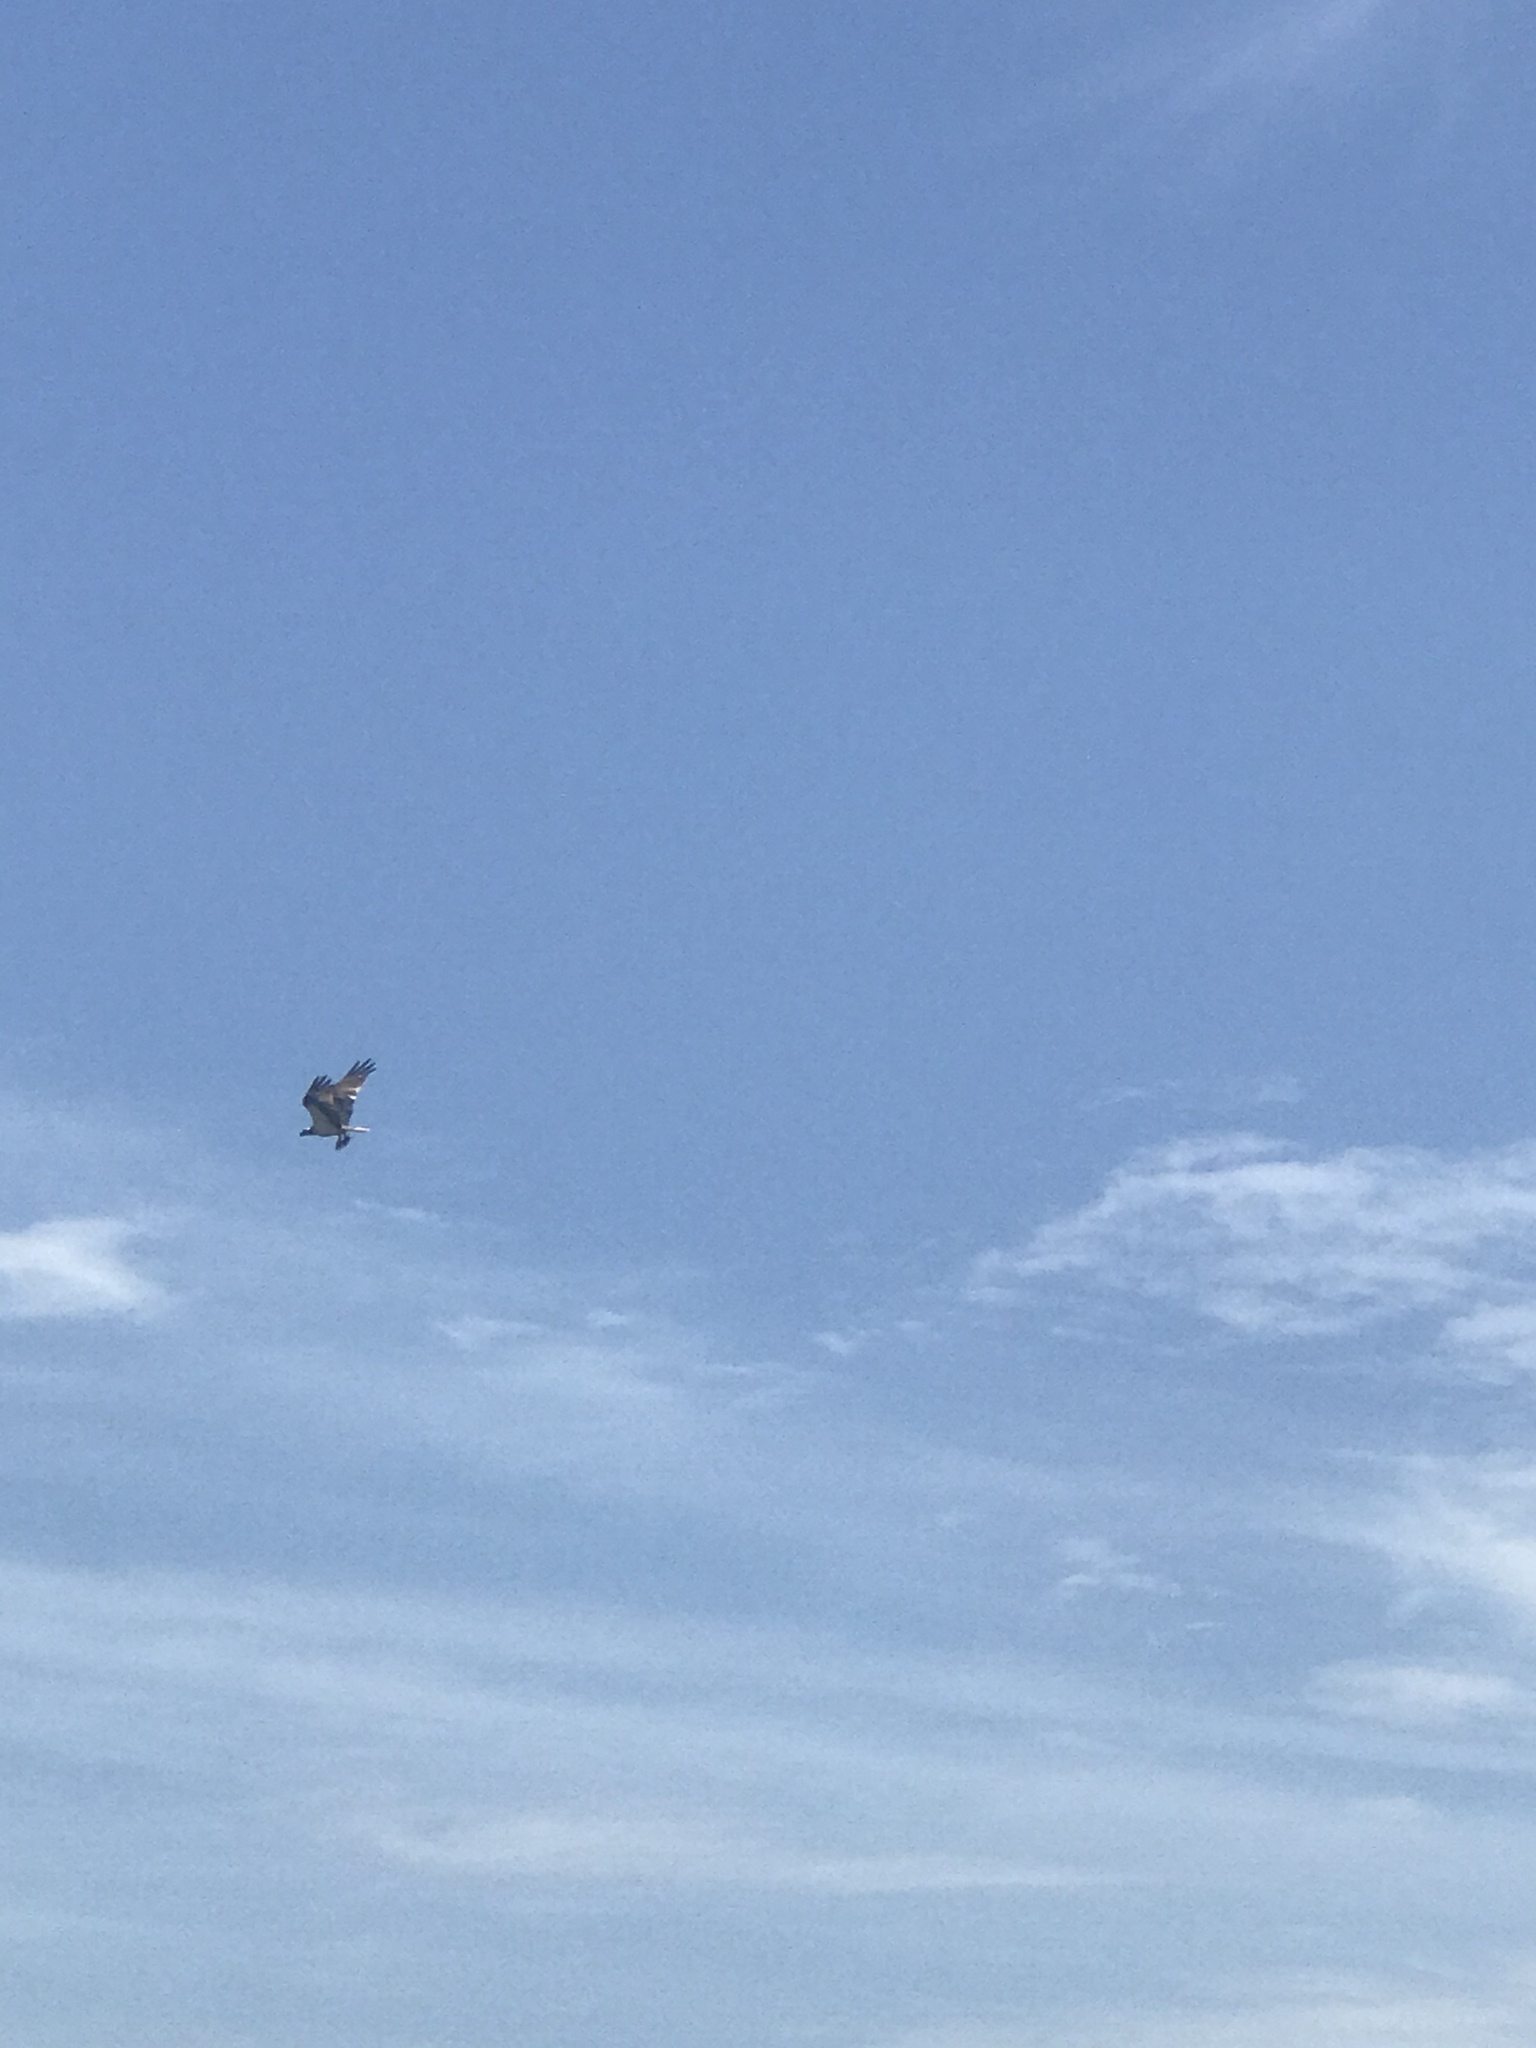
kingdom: Animalia
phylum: Chordata
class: Aves
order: Accipitriformes
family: Pandionidae
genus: Pandion
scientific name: Pandion haliaetus
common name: Osprey
